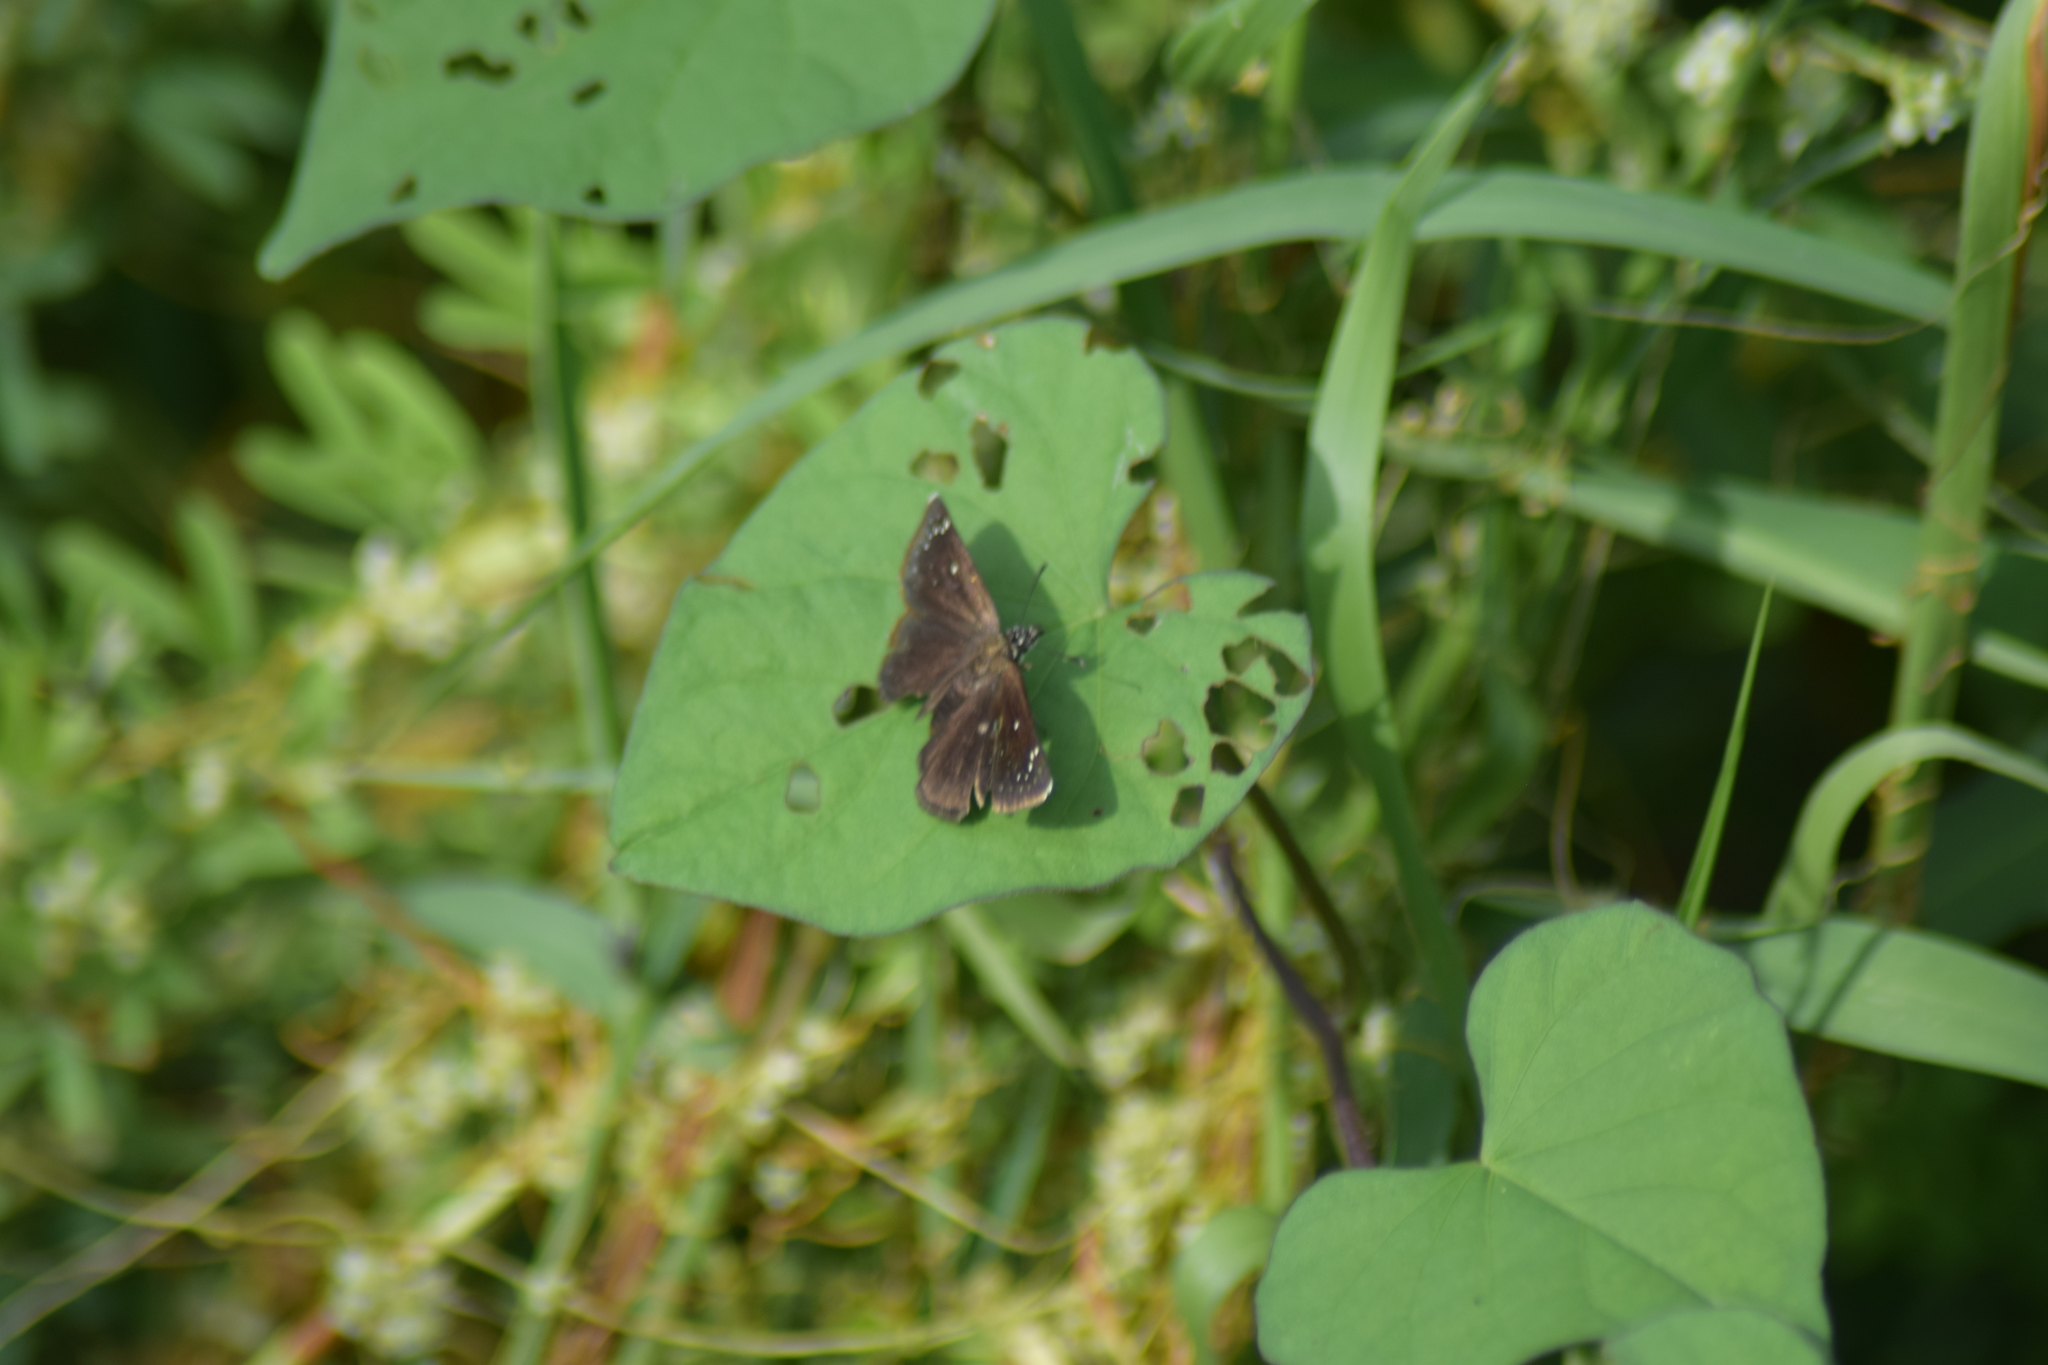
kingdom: Animalia
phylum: Arthropoda
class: Insecta
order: Lepidoptera
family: Hesperiidae
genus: Pholisora
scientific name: Pholisora catullus
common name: Common sootywing
